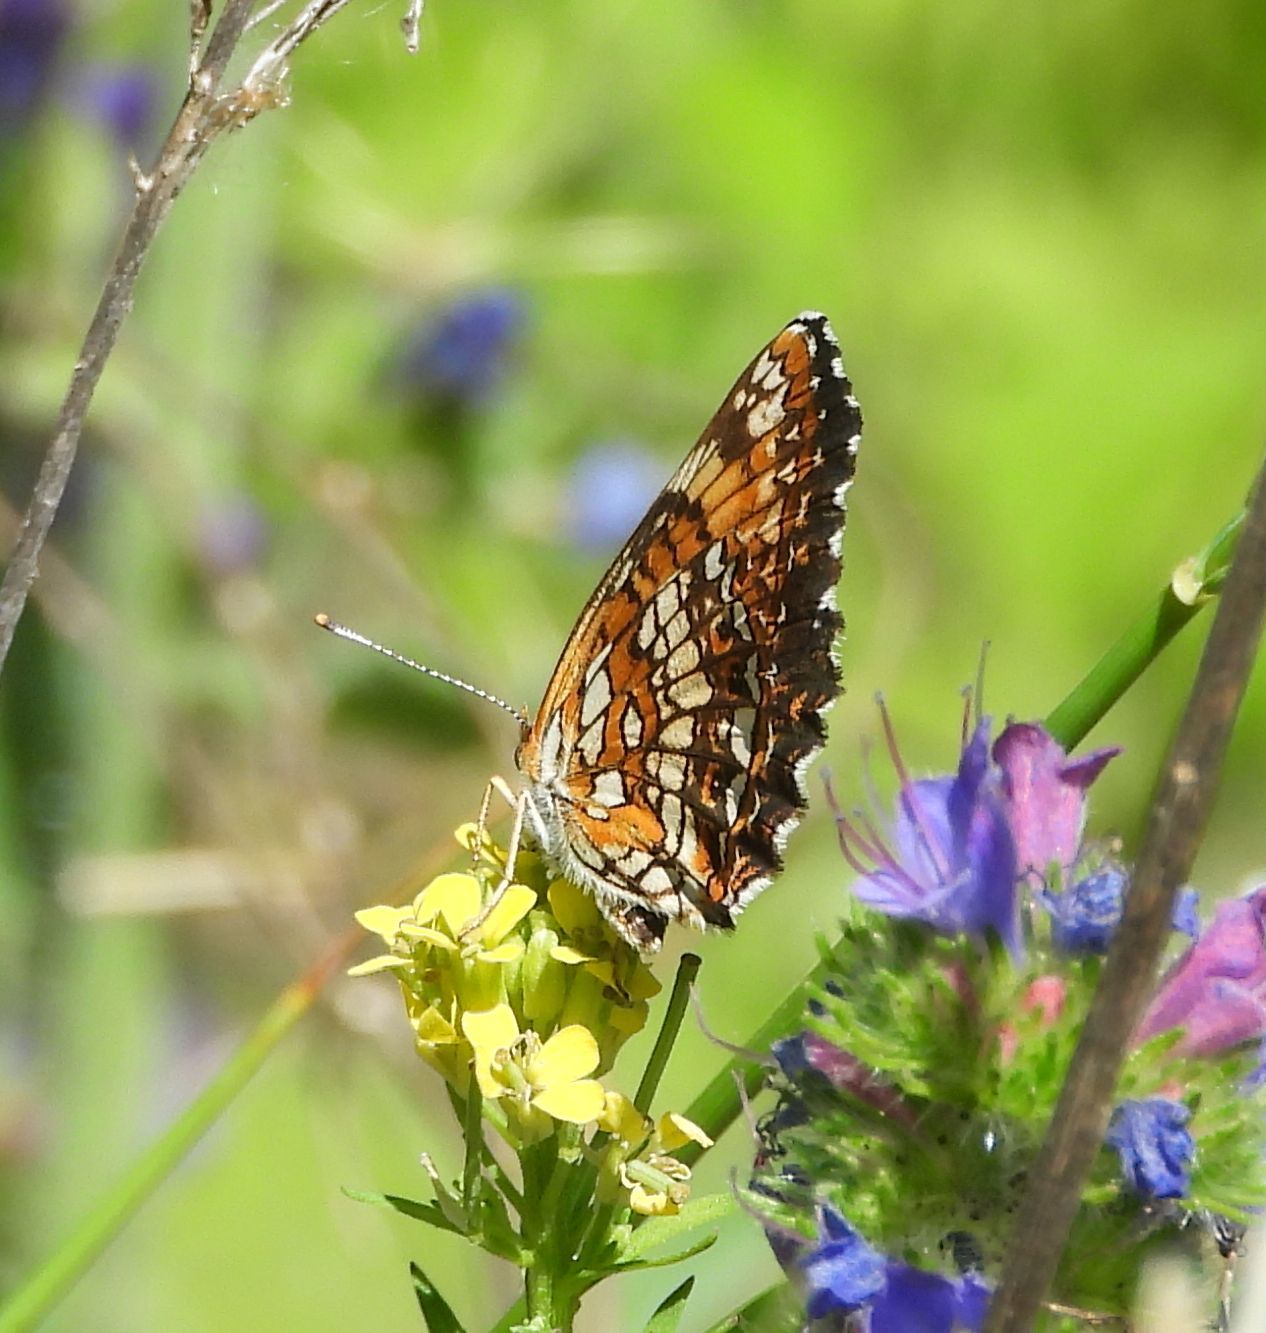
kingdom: Animalia
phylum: Arthropoda
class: Insecta
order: Lepidoptera
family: Nymphalidae
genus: Chlosyne
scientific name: Chlosyne harrisii
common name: Harris's checkerspot
